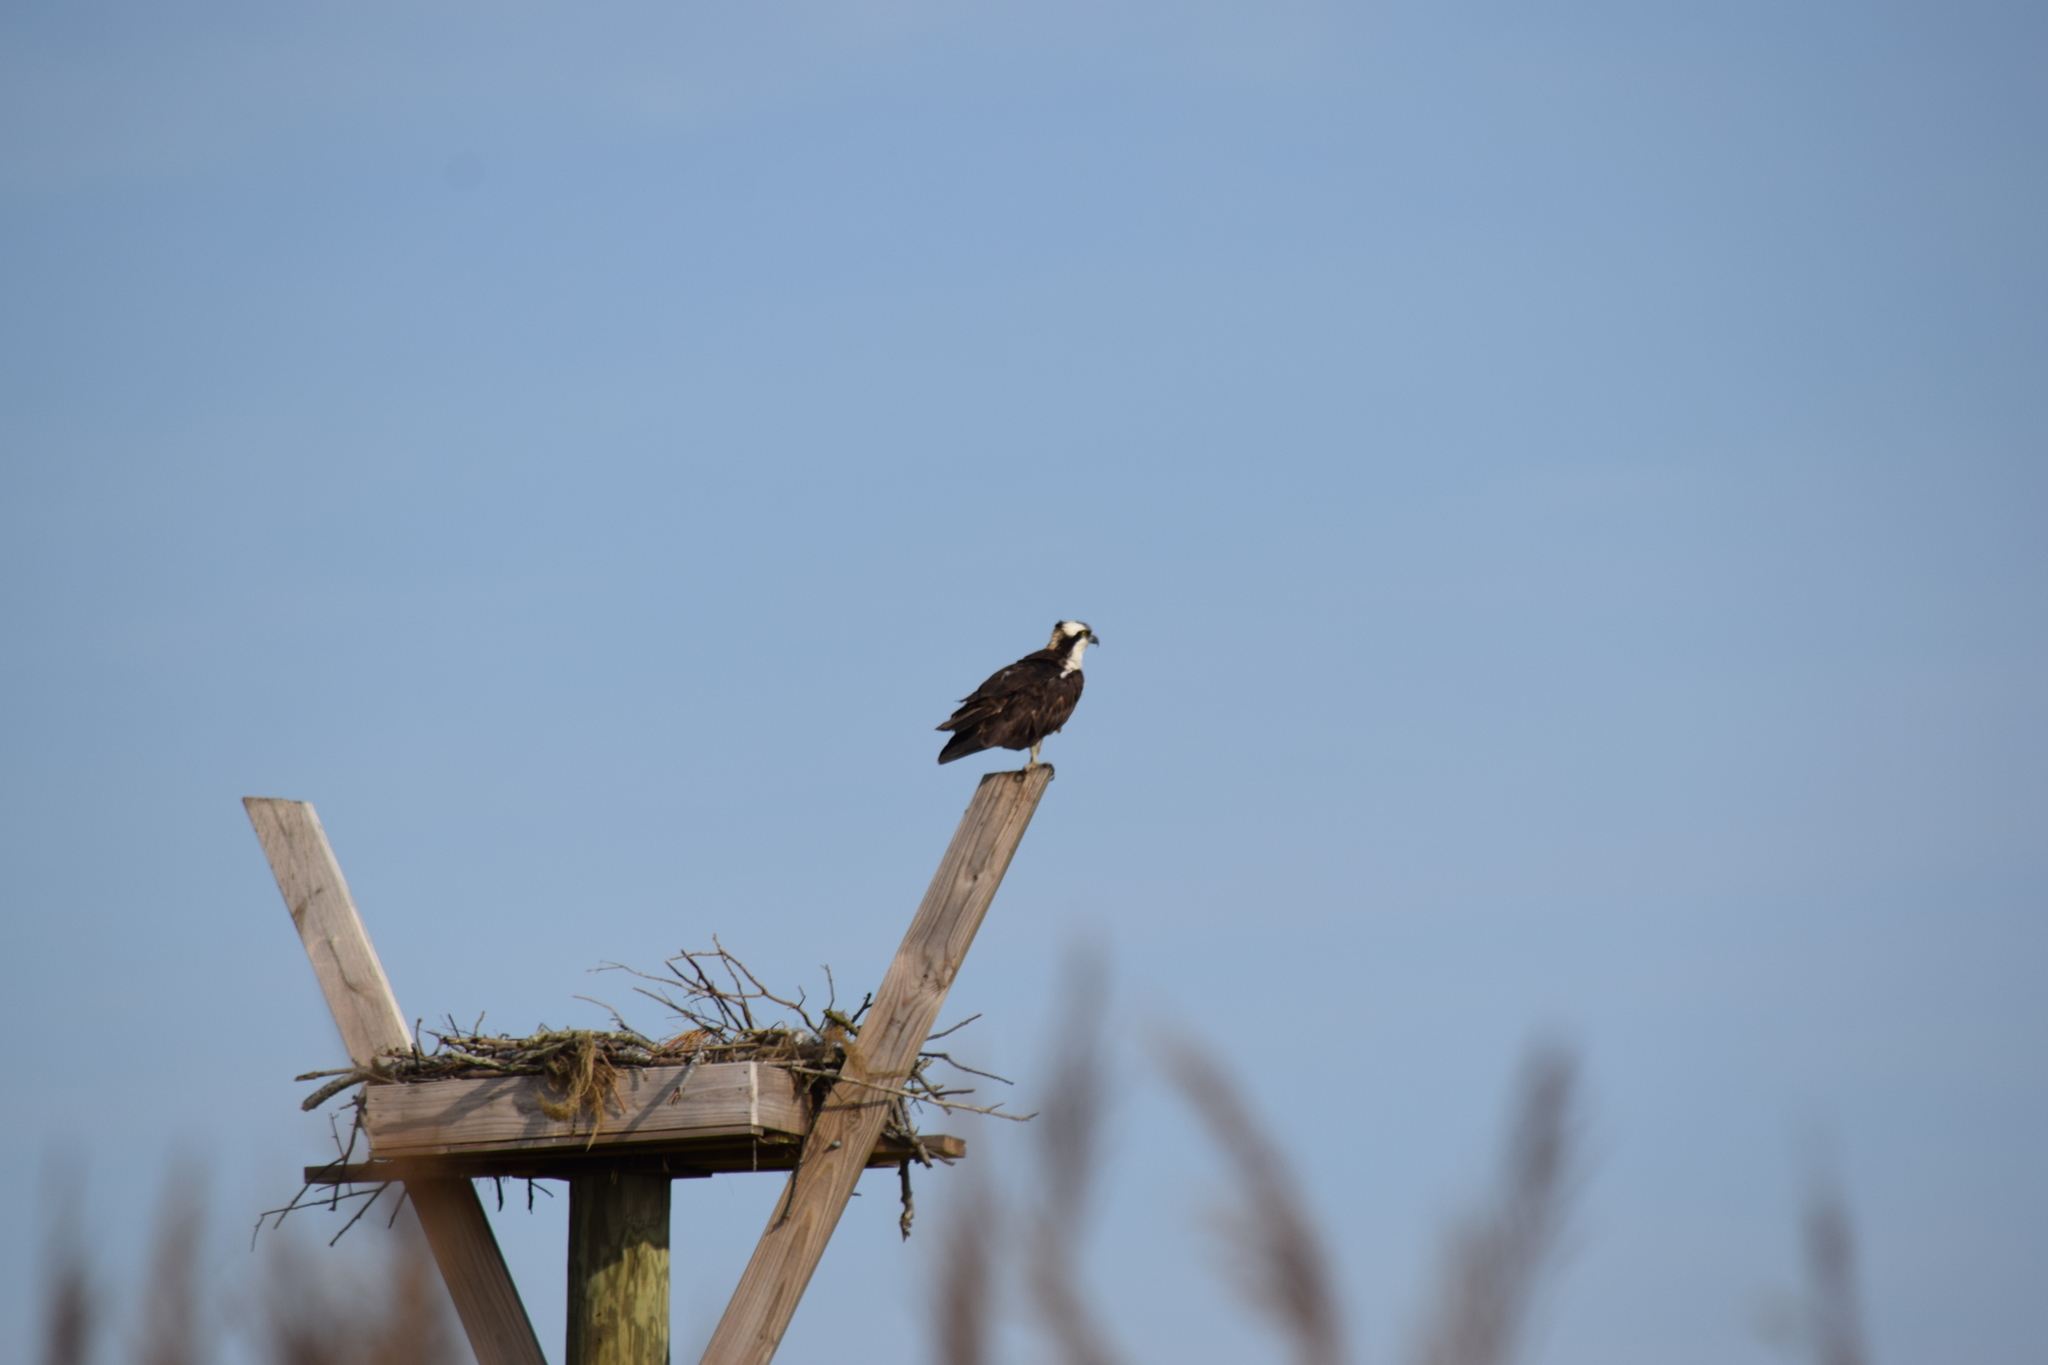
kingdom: Animalia
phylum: Chordata
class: Aves
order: Accipitriformes
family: Pandionidae
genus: Pandion
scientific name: Pandion haliaetus
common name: Osprey
